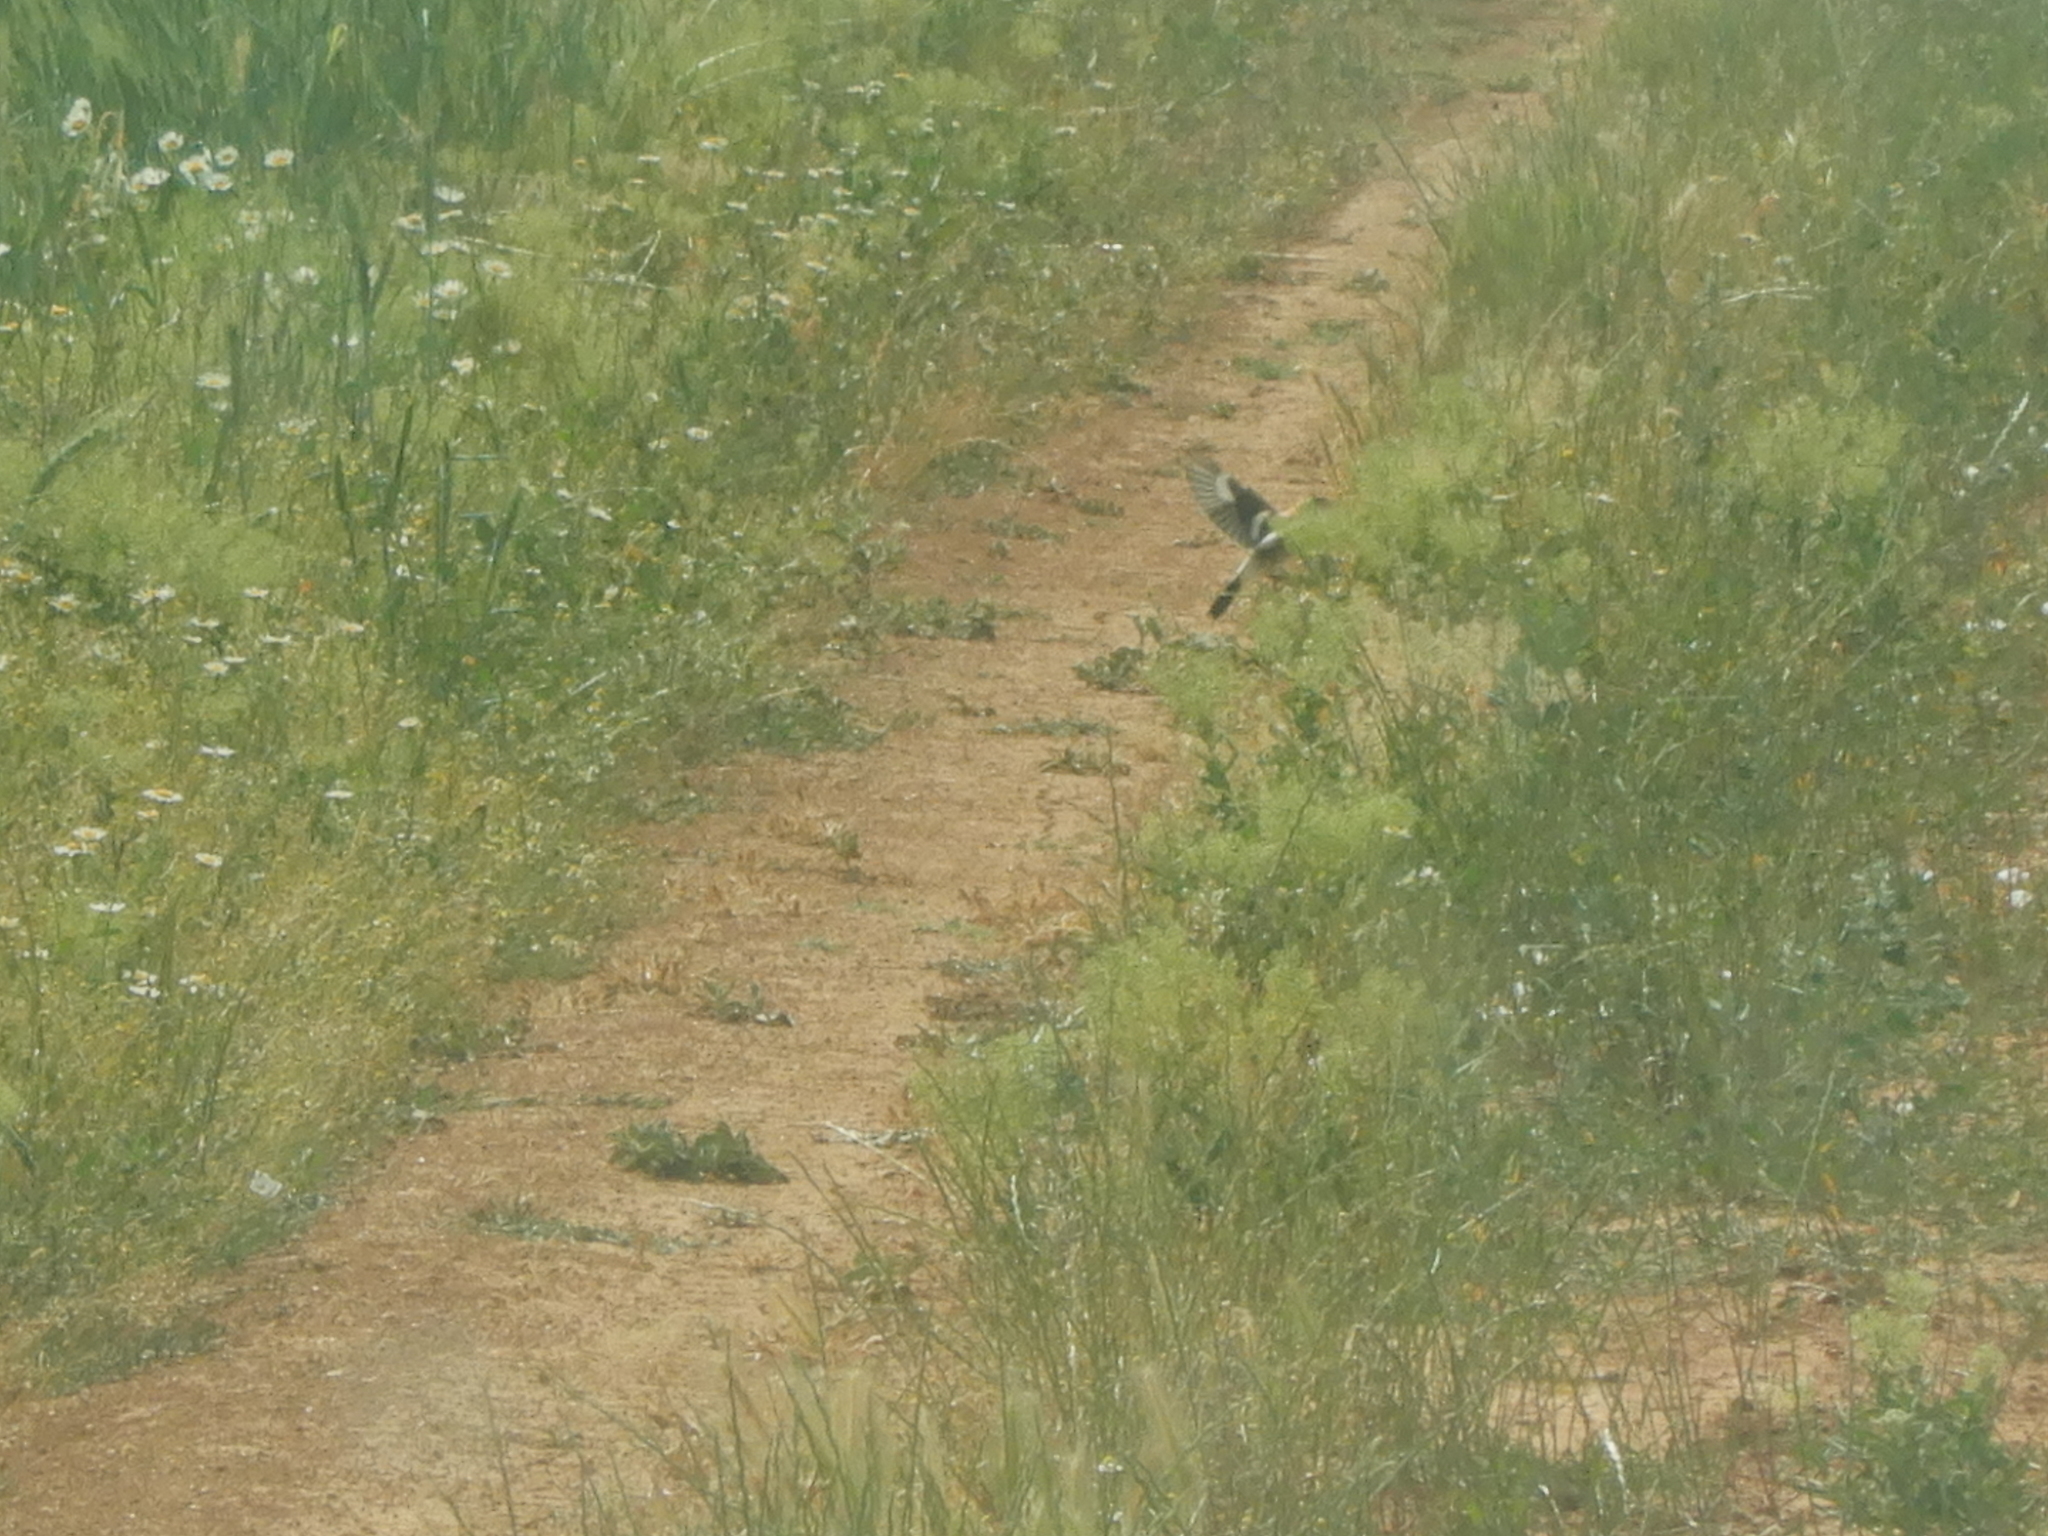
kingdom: Animalia
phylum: Chordata
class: Aves
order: Passeriformes
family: Laniidae
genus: Lanius
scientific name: Lanius senator
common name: Woodchat shrike
